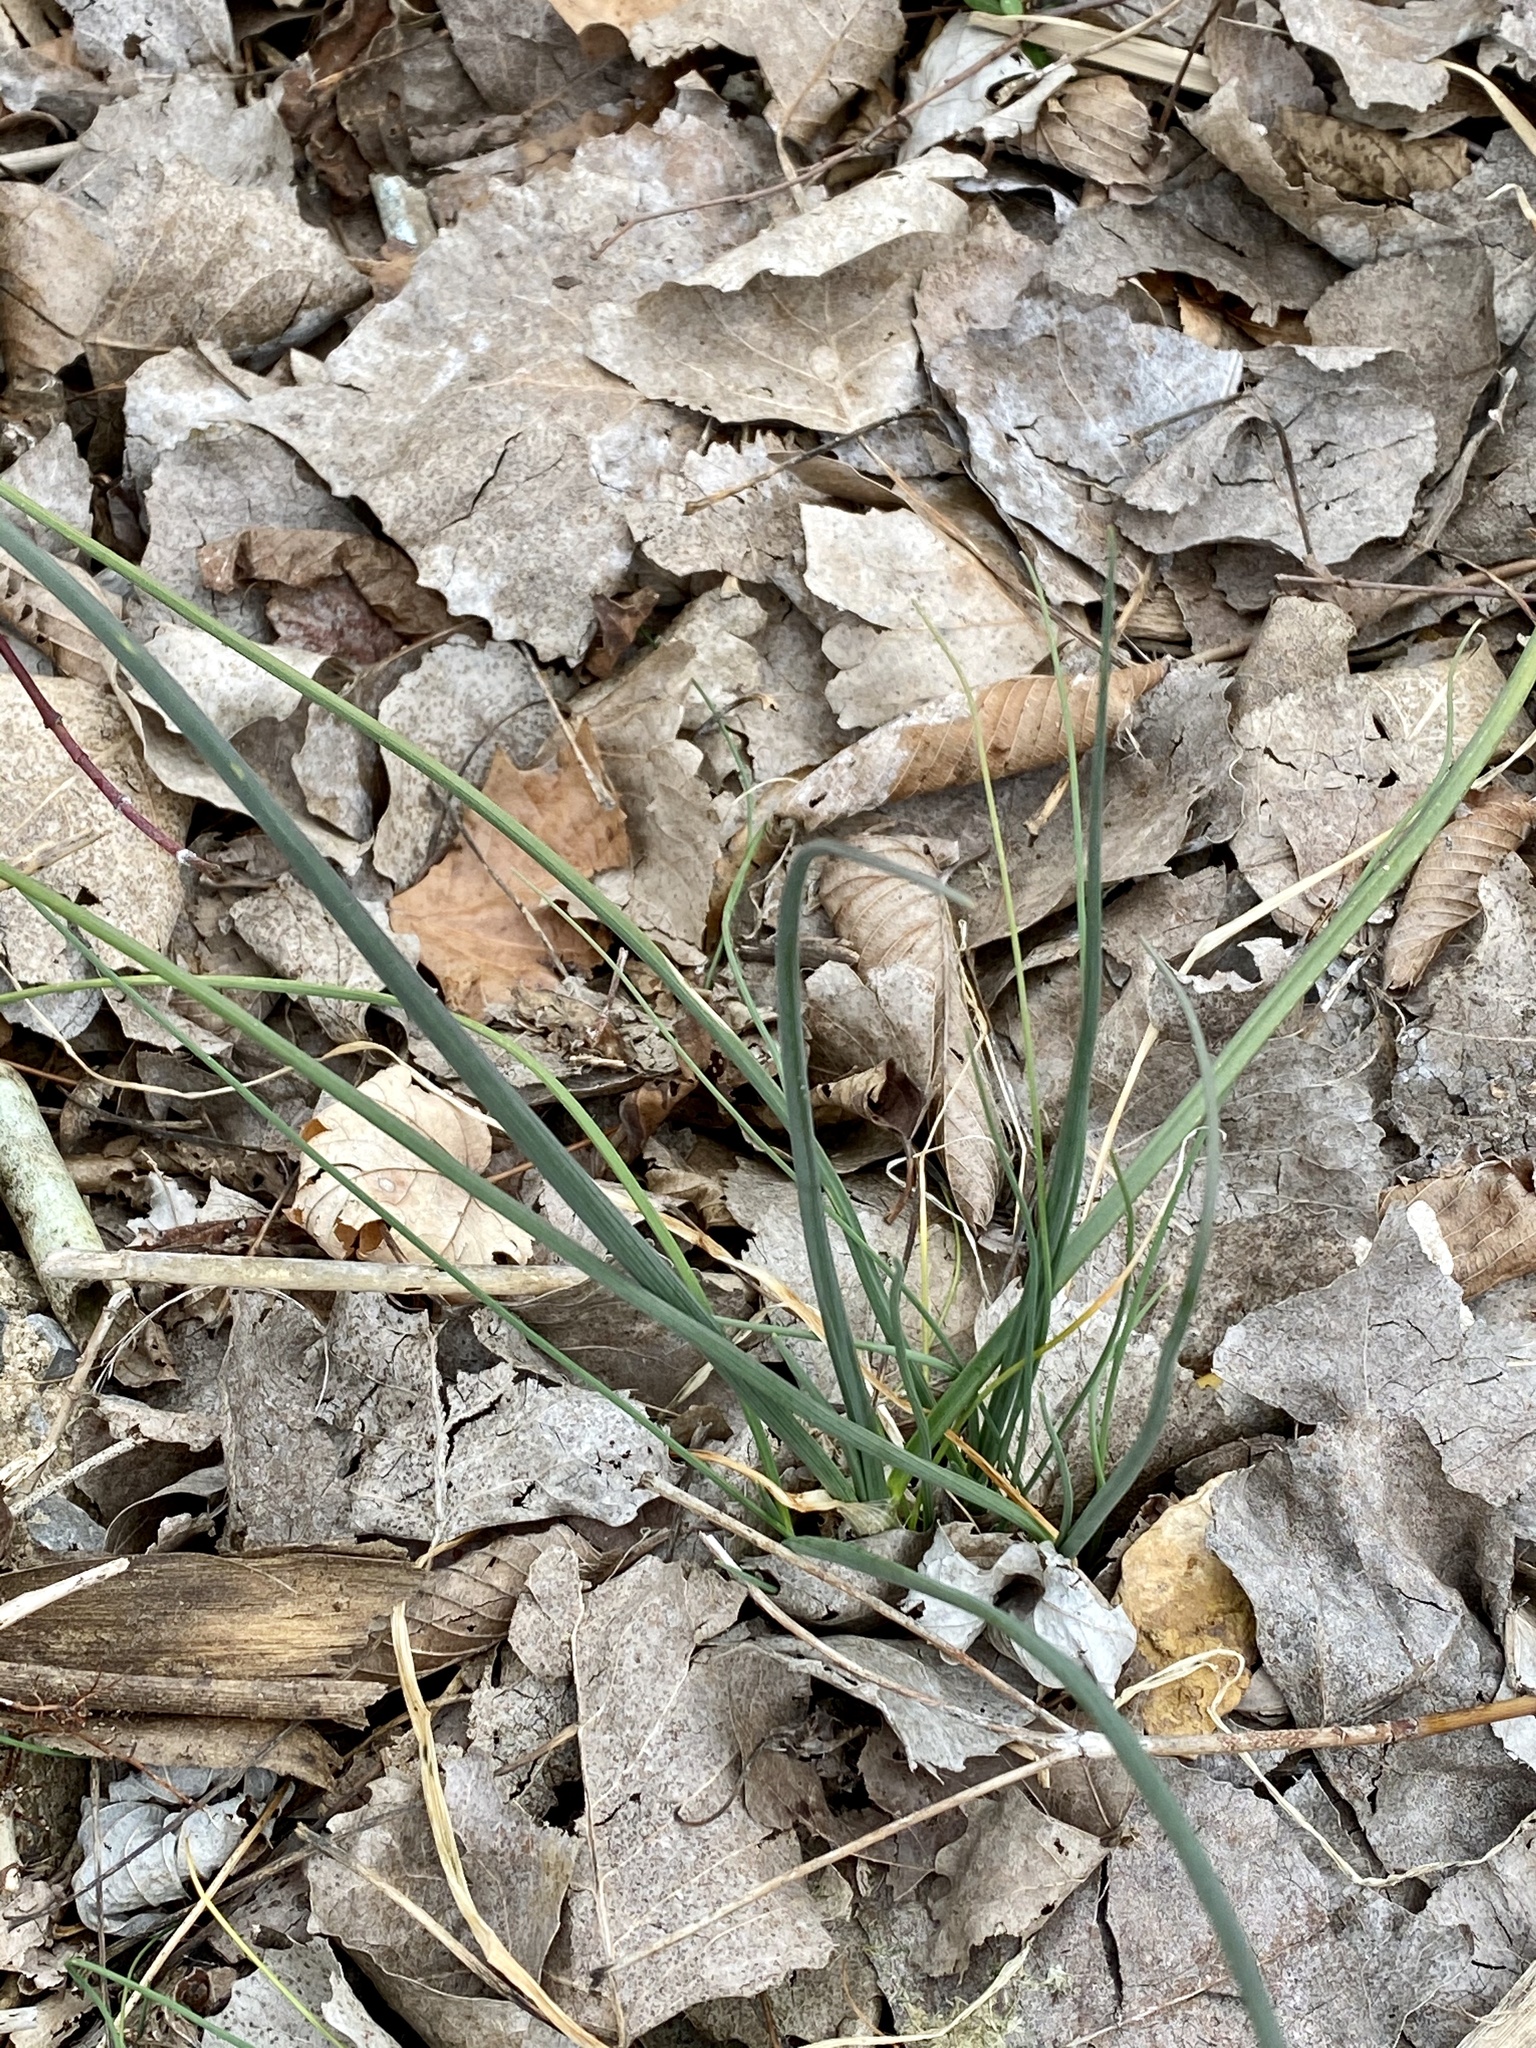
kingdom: Plantae
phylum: Tracheophyta
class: Liliopsida
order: Asparagales
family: Amaryllidaceae
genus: Allium
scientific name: Allium vineale
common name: Crow garlic
